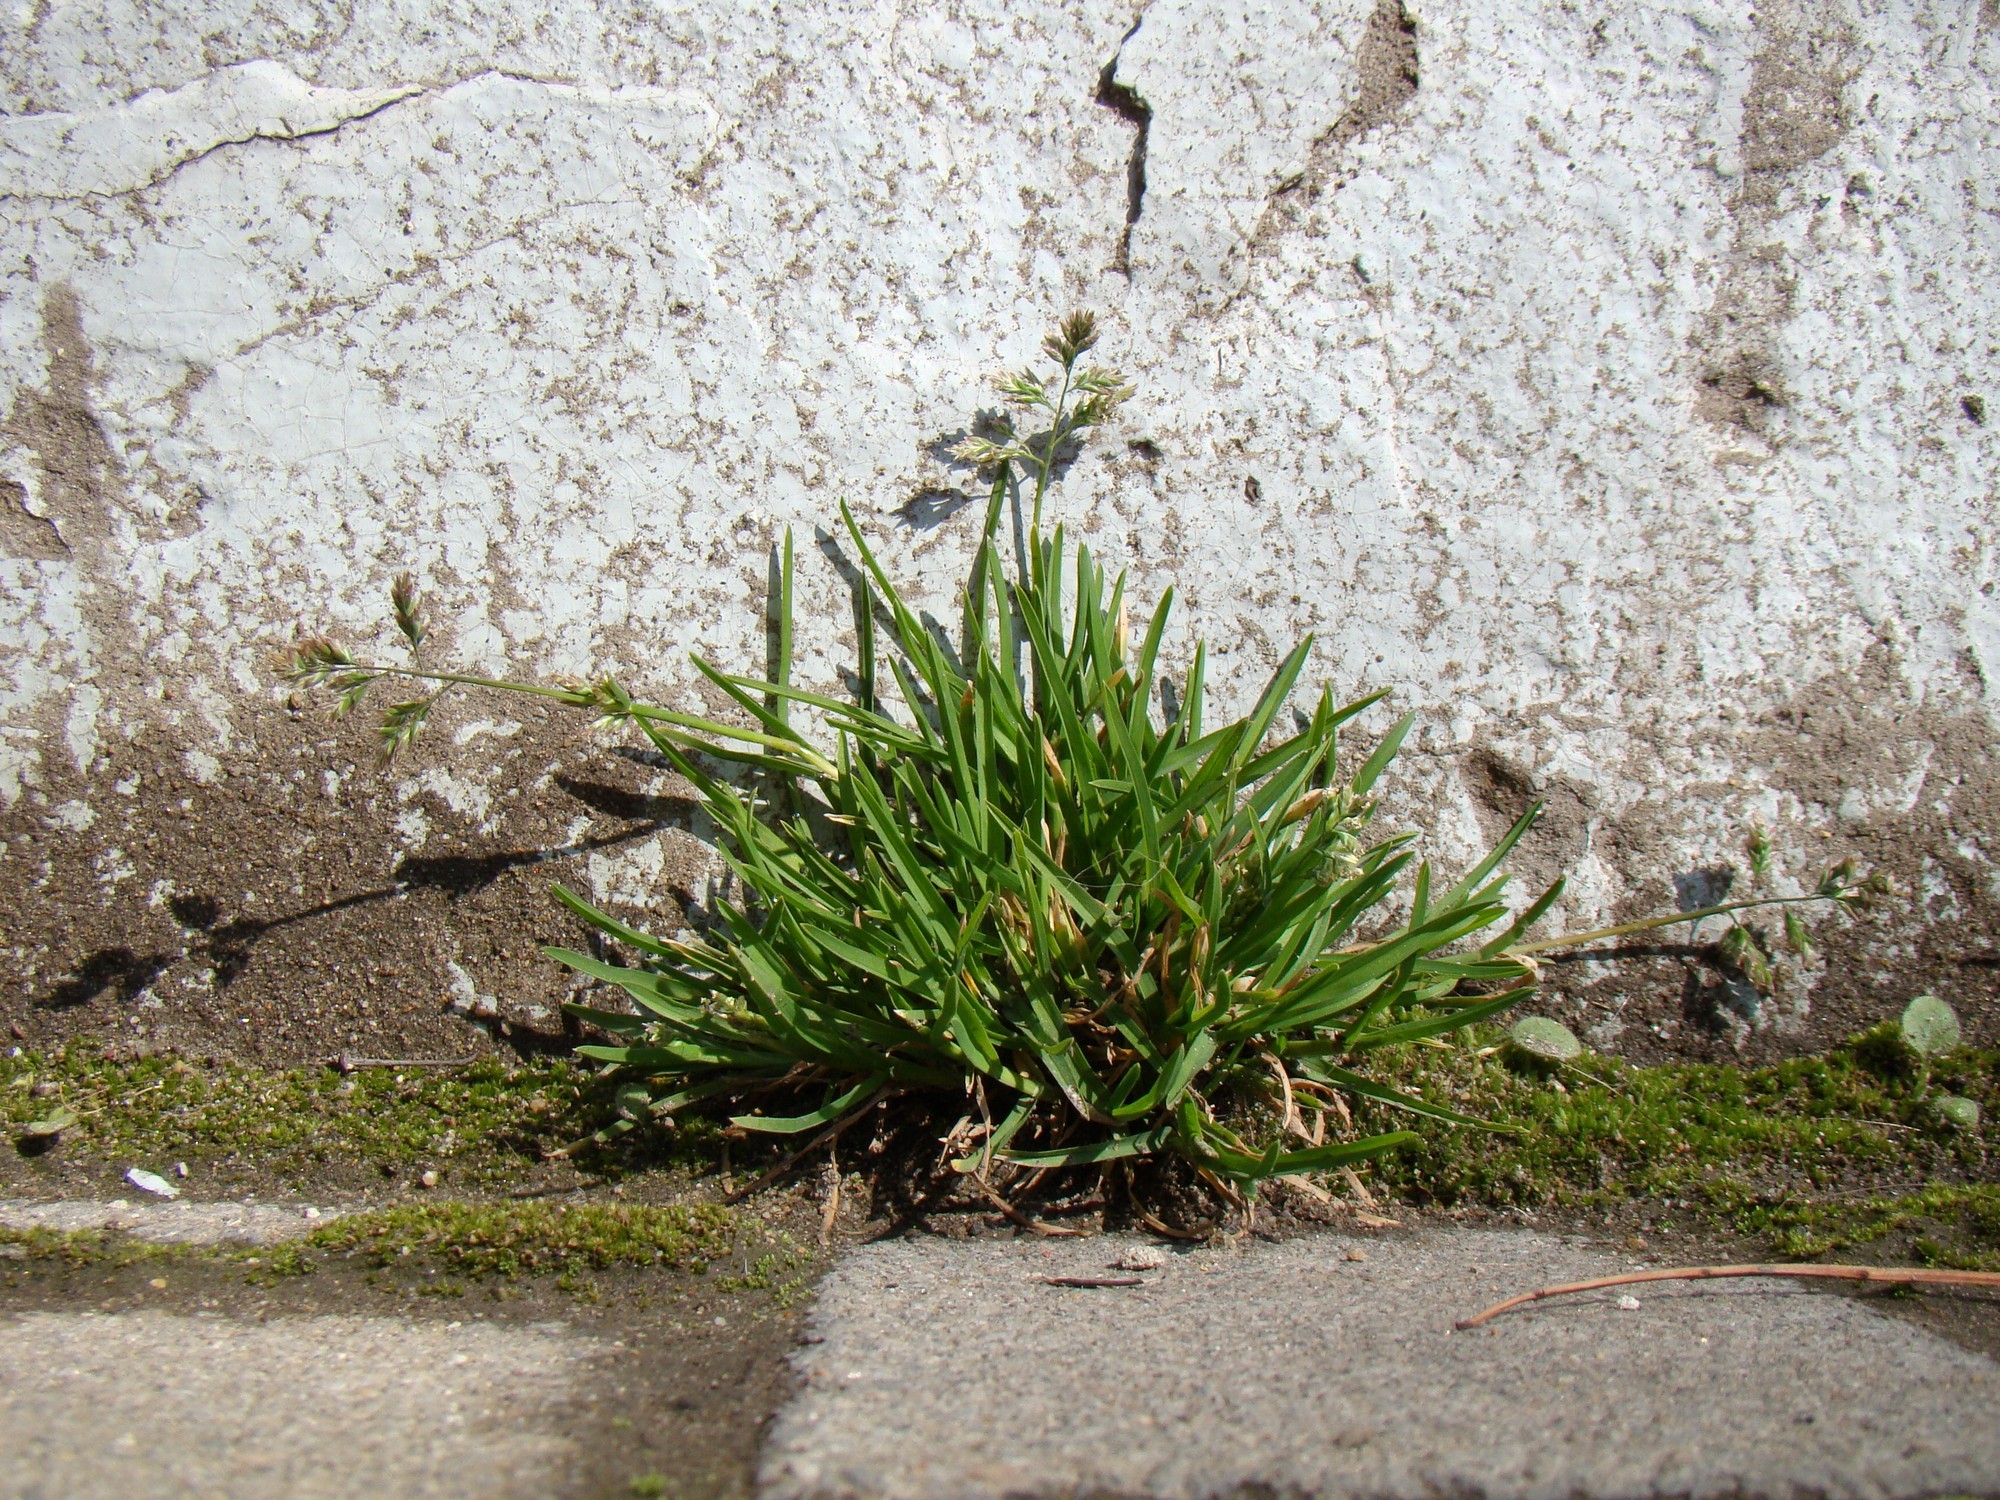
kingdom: Plantae
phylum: Tracheophyta
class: Liliopsida
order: Poales
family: Poaceae
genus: Poa
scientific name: Poa annua
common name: Annual bluegrass
